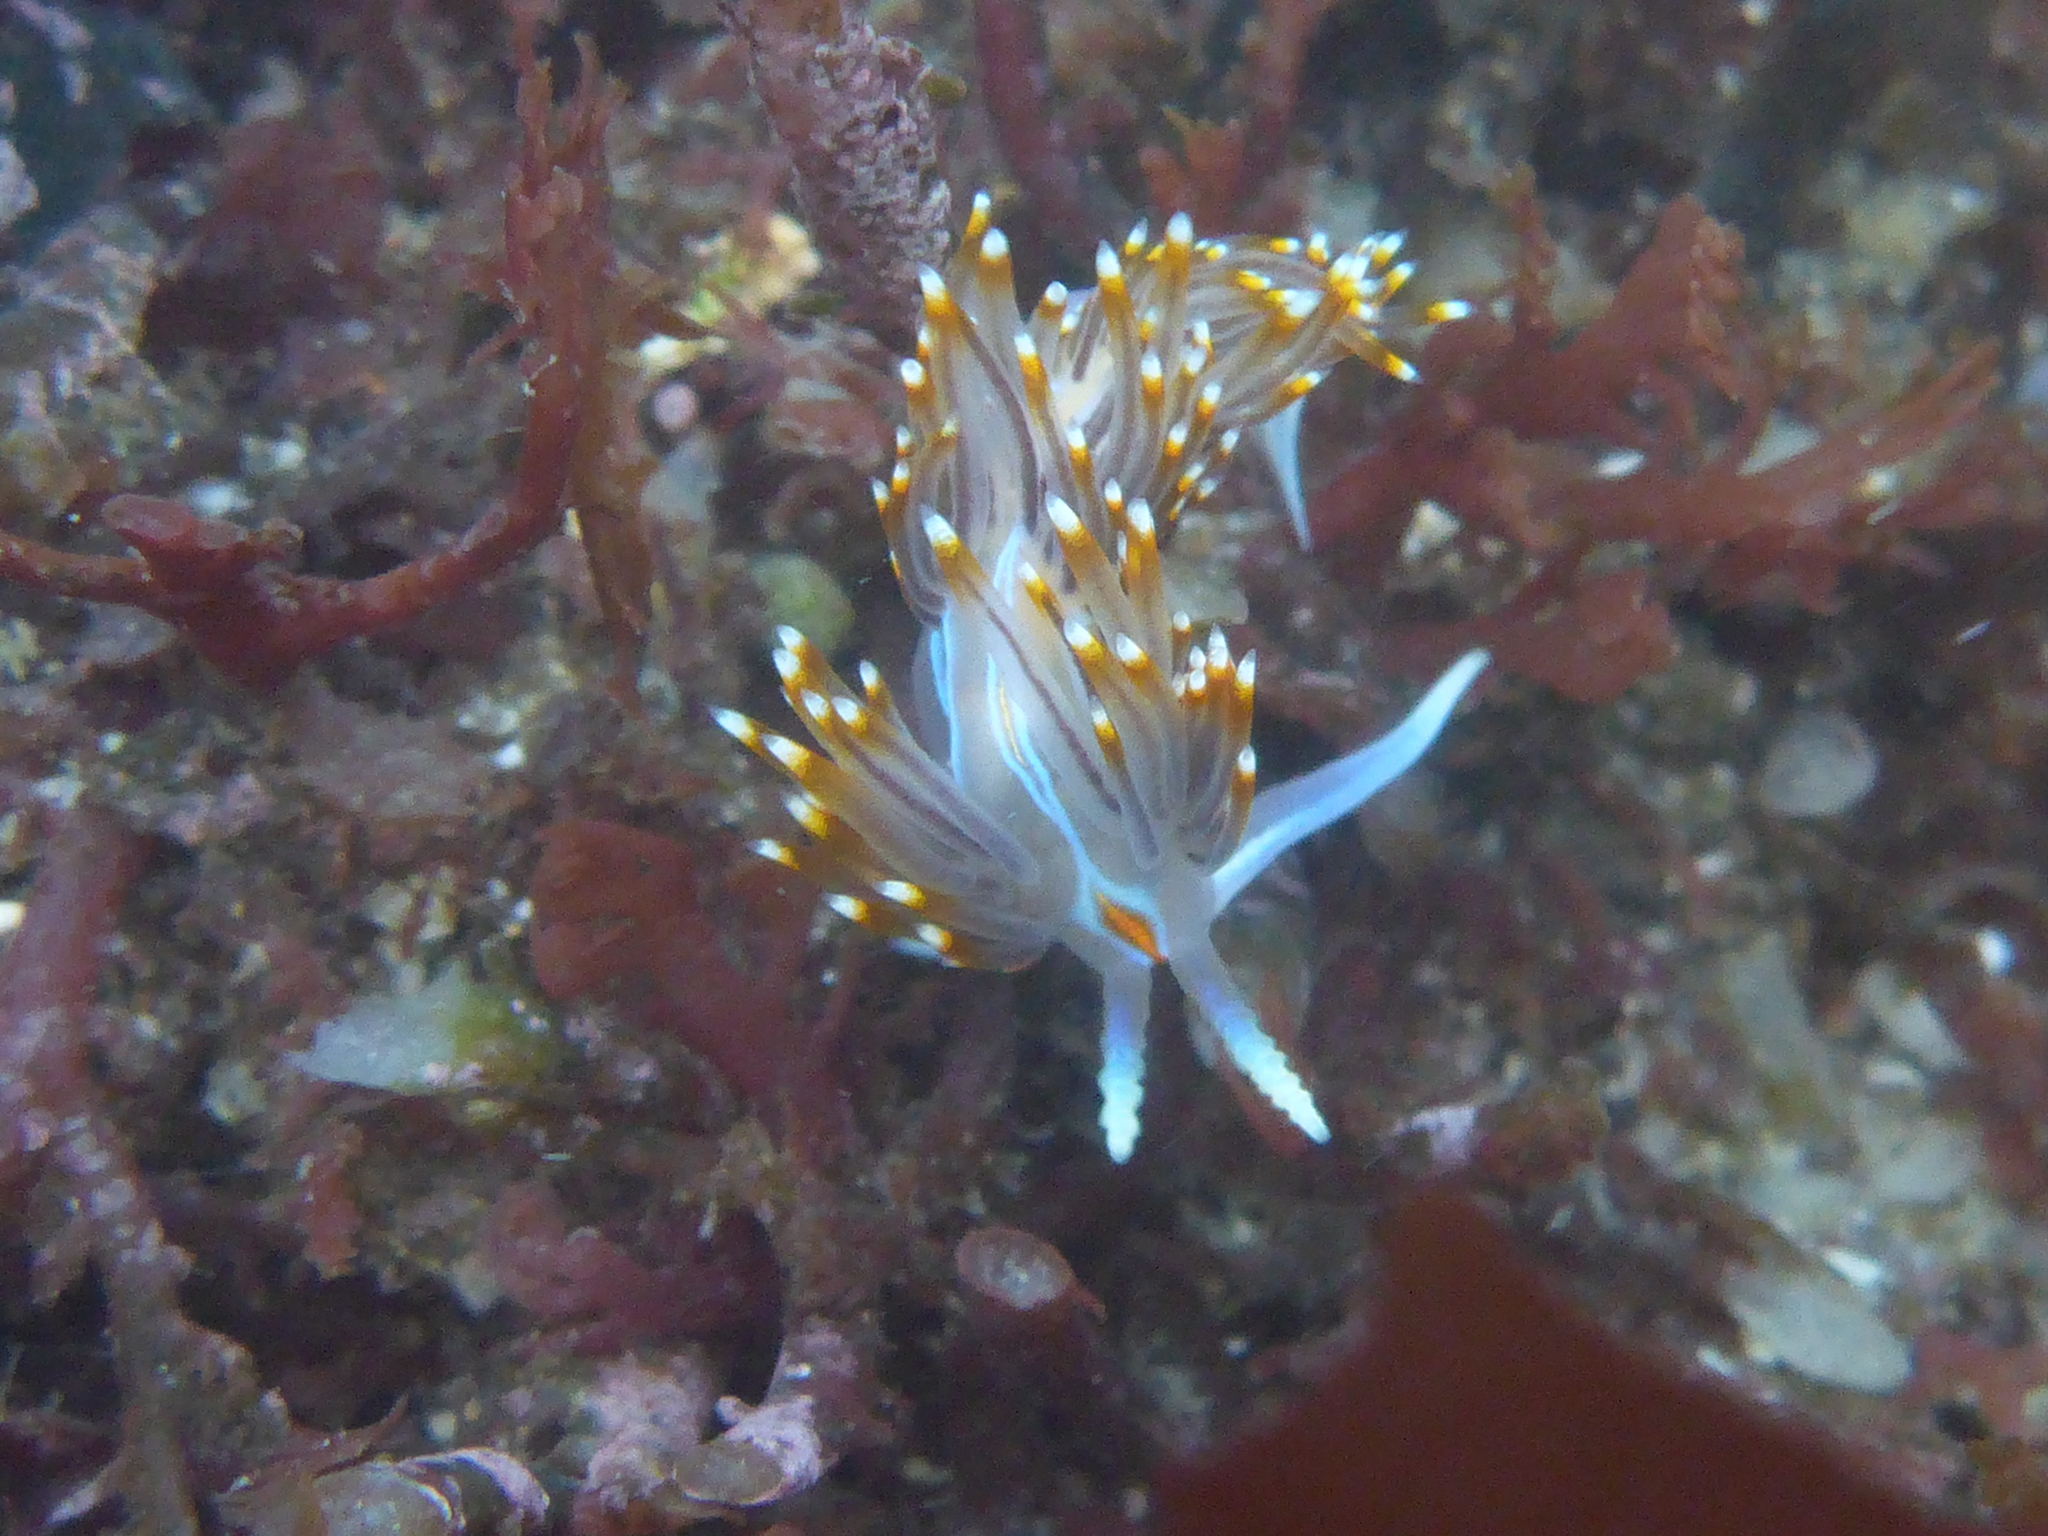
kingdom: Animalia
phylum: Mollusca
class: Gastropoda
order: Nudibranchia
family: Myrrhinidae
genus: Hermissenda
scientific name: Hermissenda opalescens
